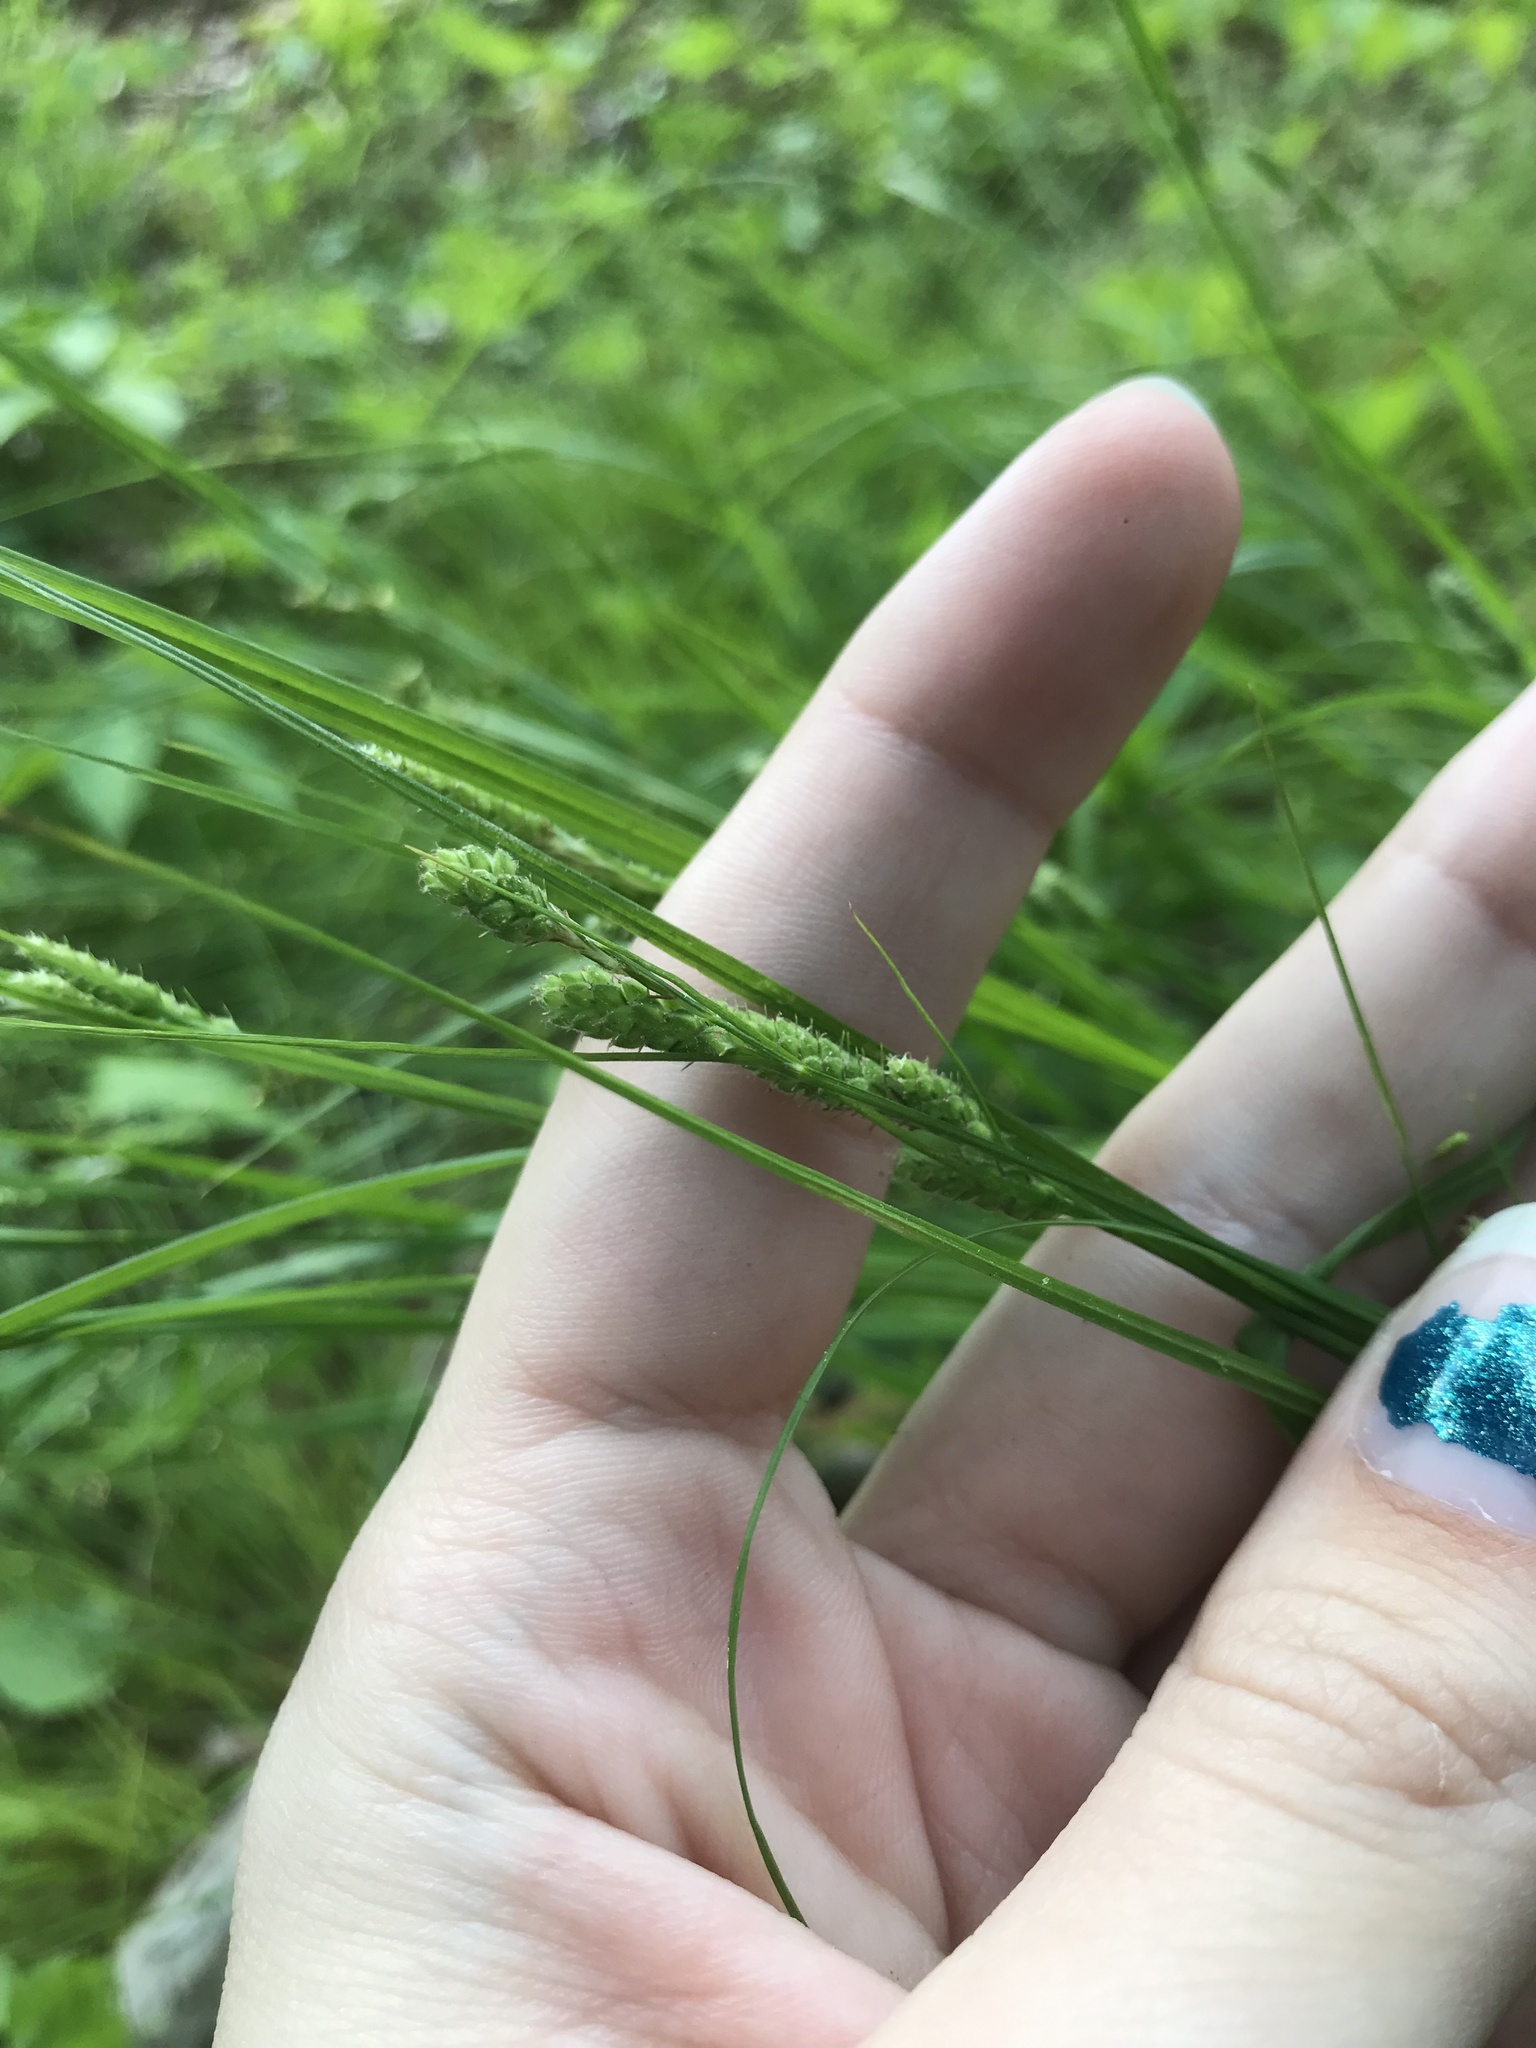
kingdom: Plantae
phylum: Tracheophyta
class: Liliopsida
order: Poales
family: Cyperaceae
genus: Carex
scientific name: Carex swanii
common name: Downy green sedge
